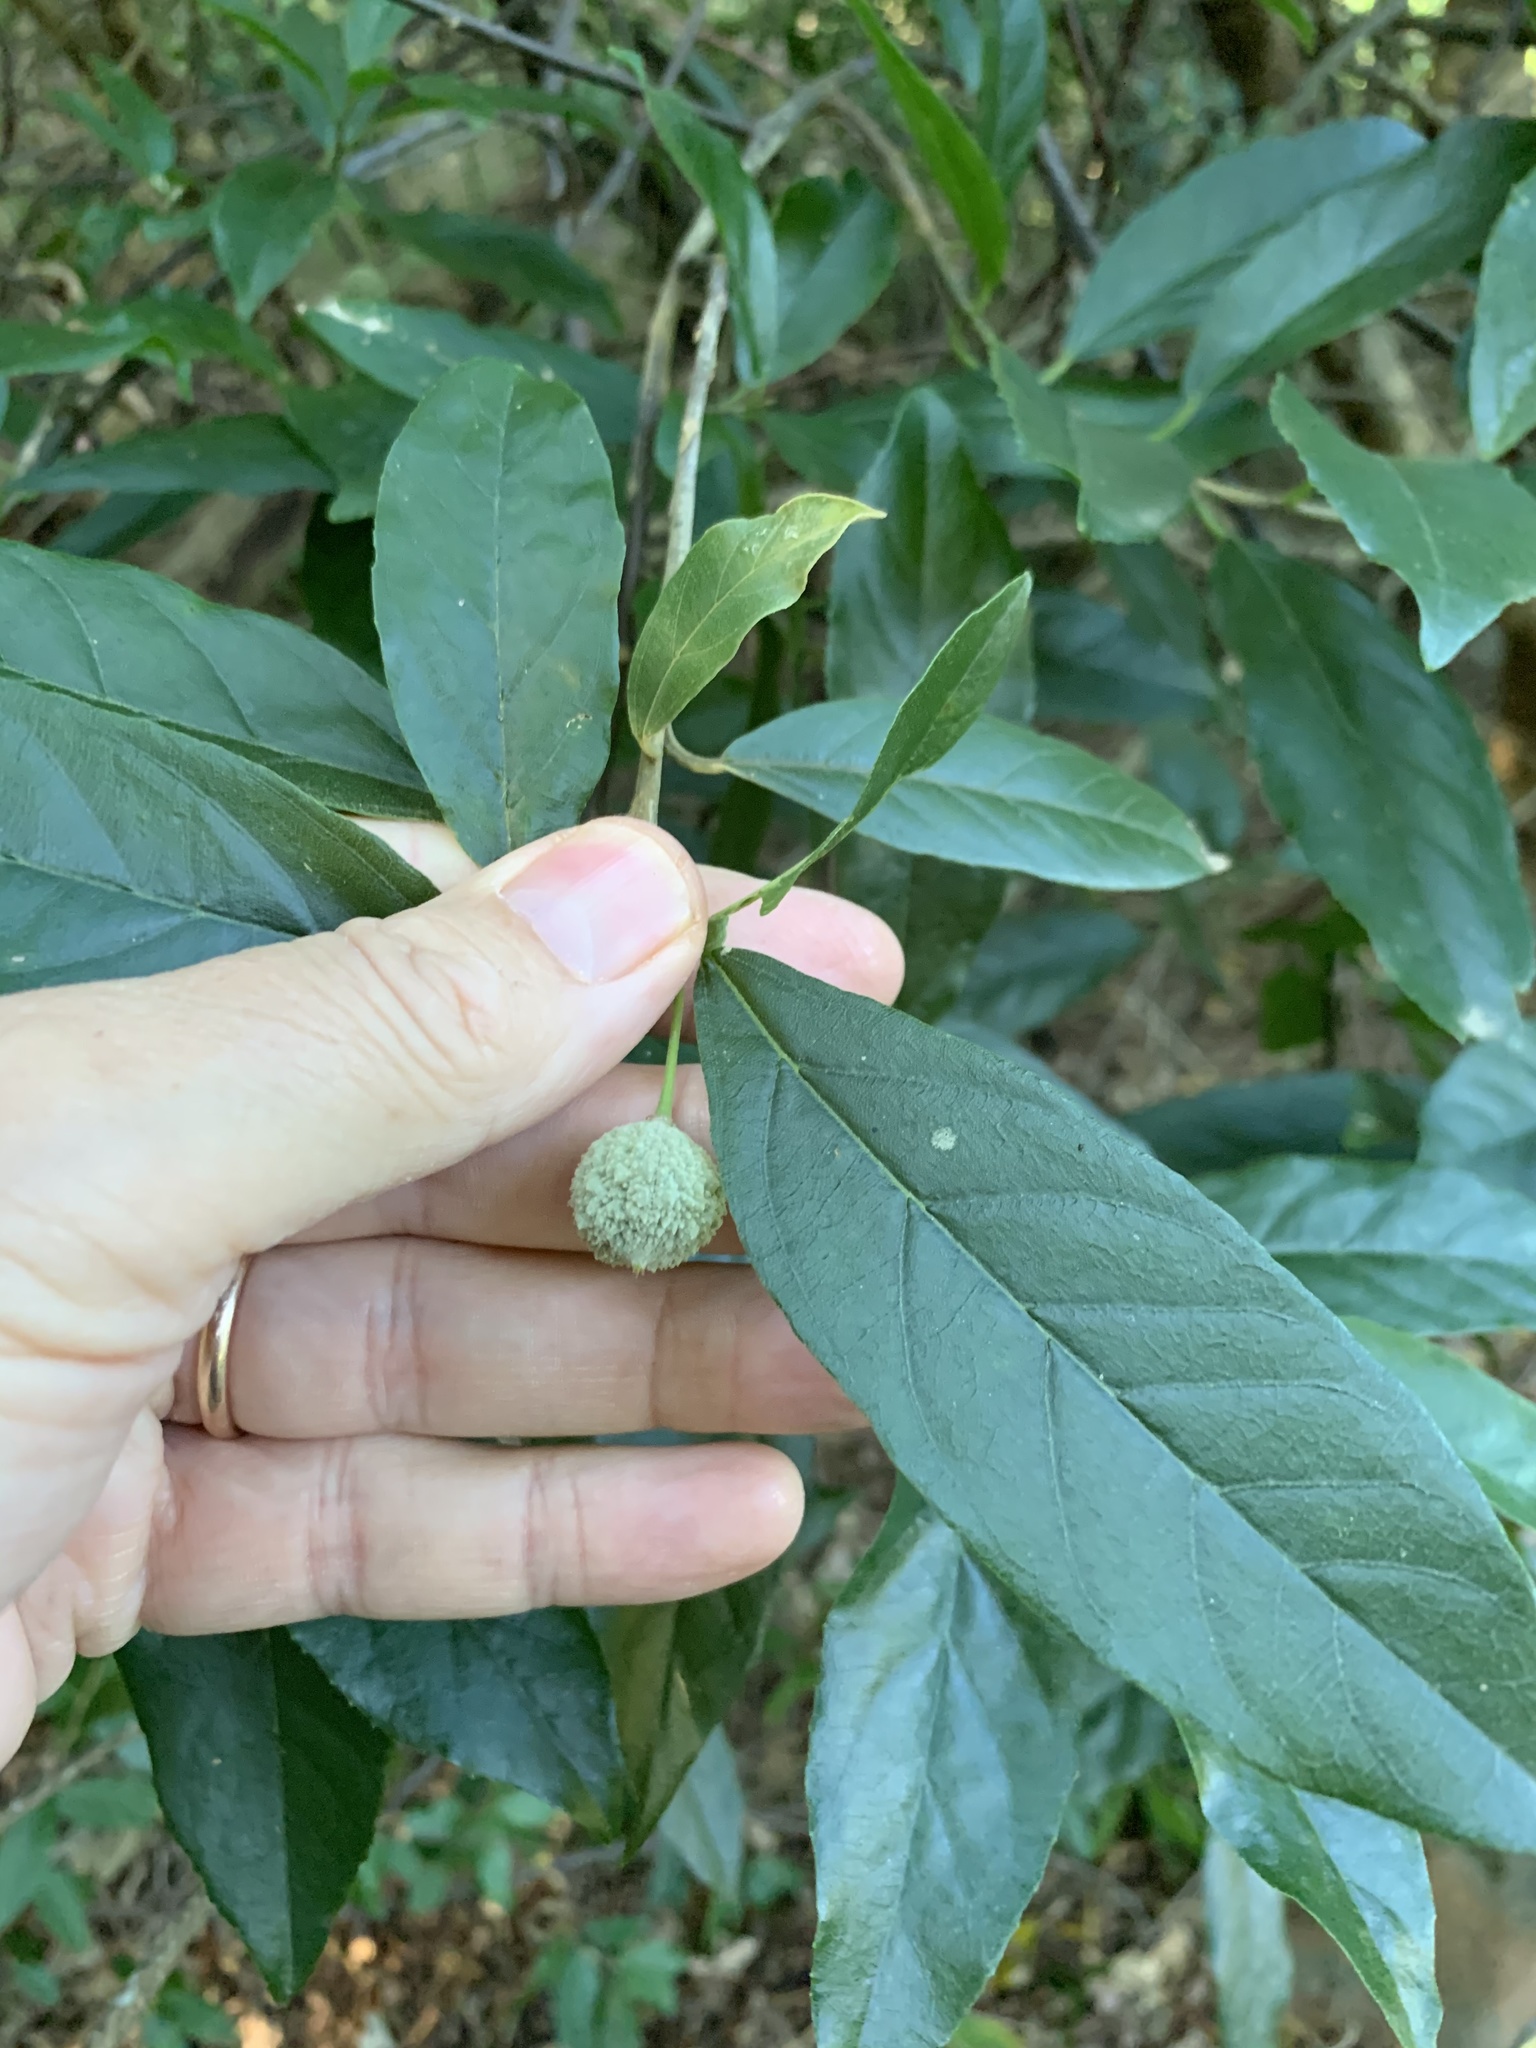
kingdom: Plantae
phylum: Tracheophyta
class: Magnoliopsida
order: Malpighiales
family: Achariaceae
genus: Kiggelaria
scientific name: Kiggelaria africana
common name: Wild peach
